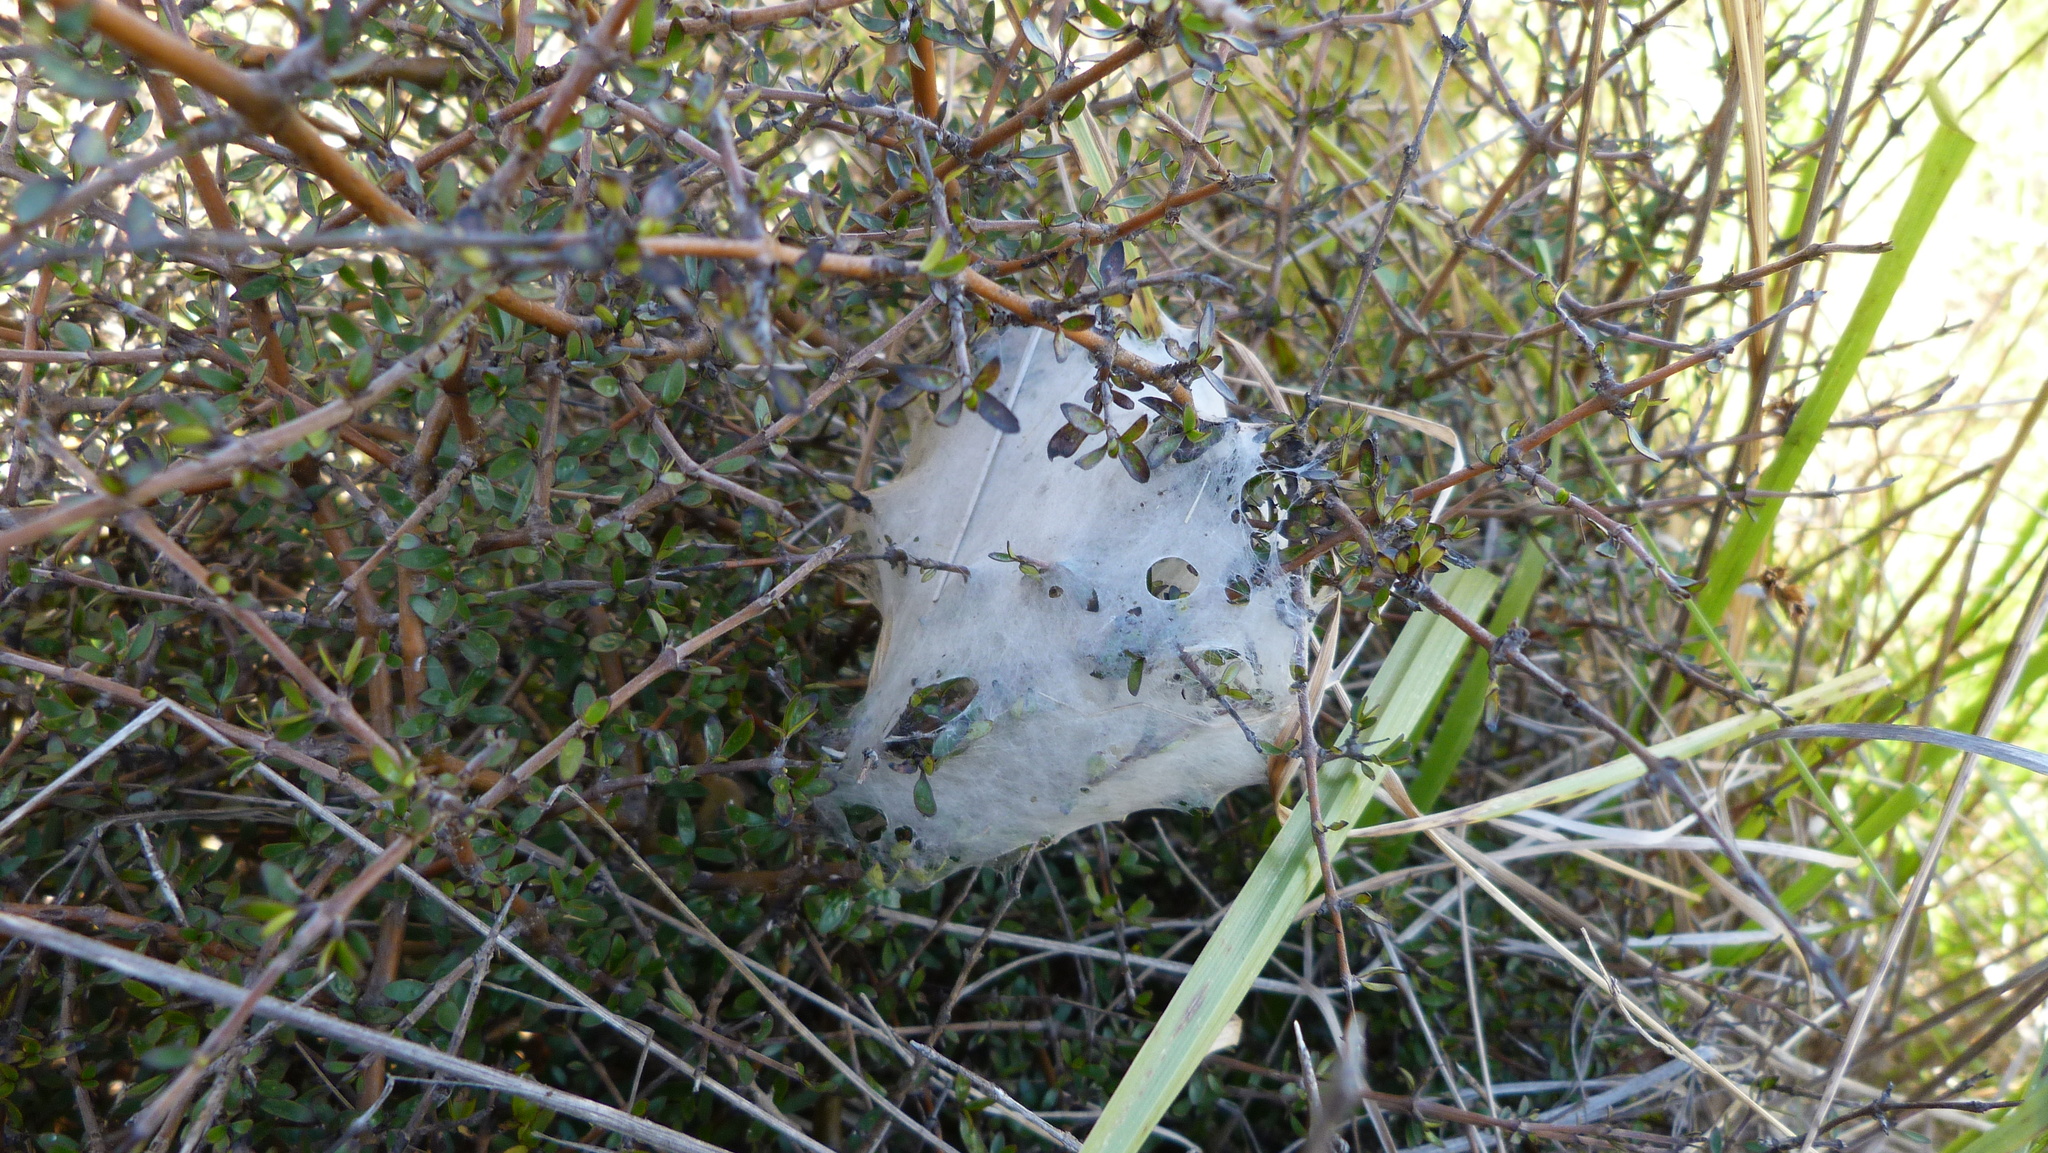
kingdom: Animalia
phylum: Arthropoda
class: Arachnida
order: Araneae
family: Pisauridae
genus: Dolomedes
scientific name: Dolomedes minor
